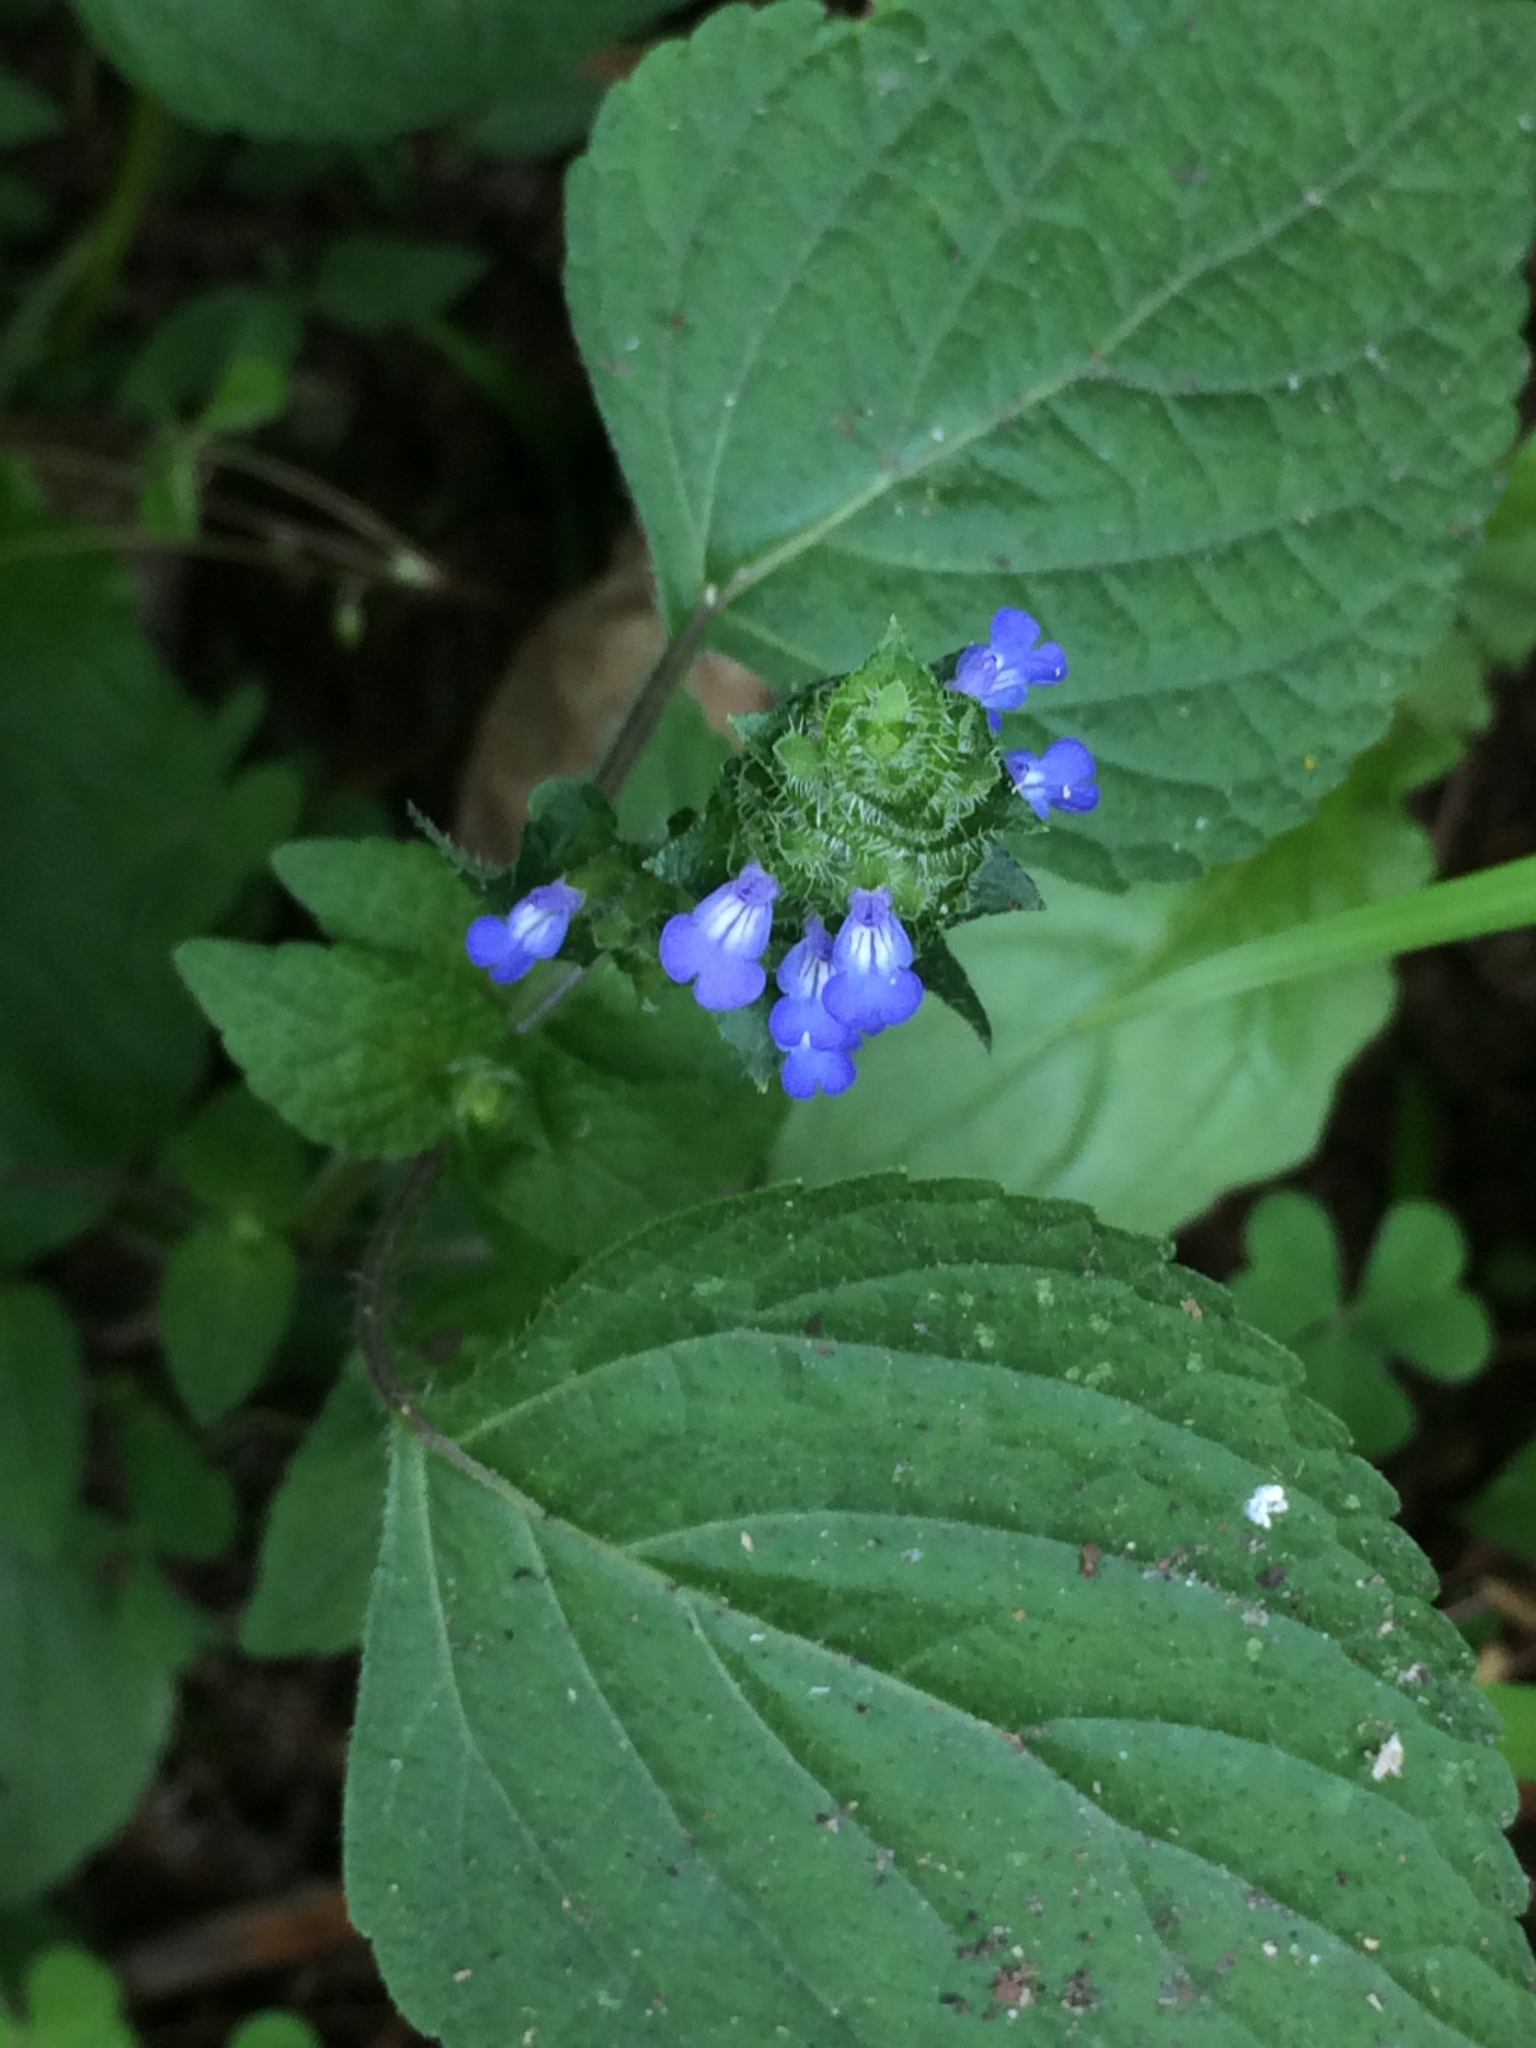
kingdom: Plantae
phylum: Tracheophyta
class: Magnoliopsida
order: Lamiales
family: Lamiaceae
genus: Salvia
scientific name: Salvia lasiocephala
